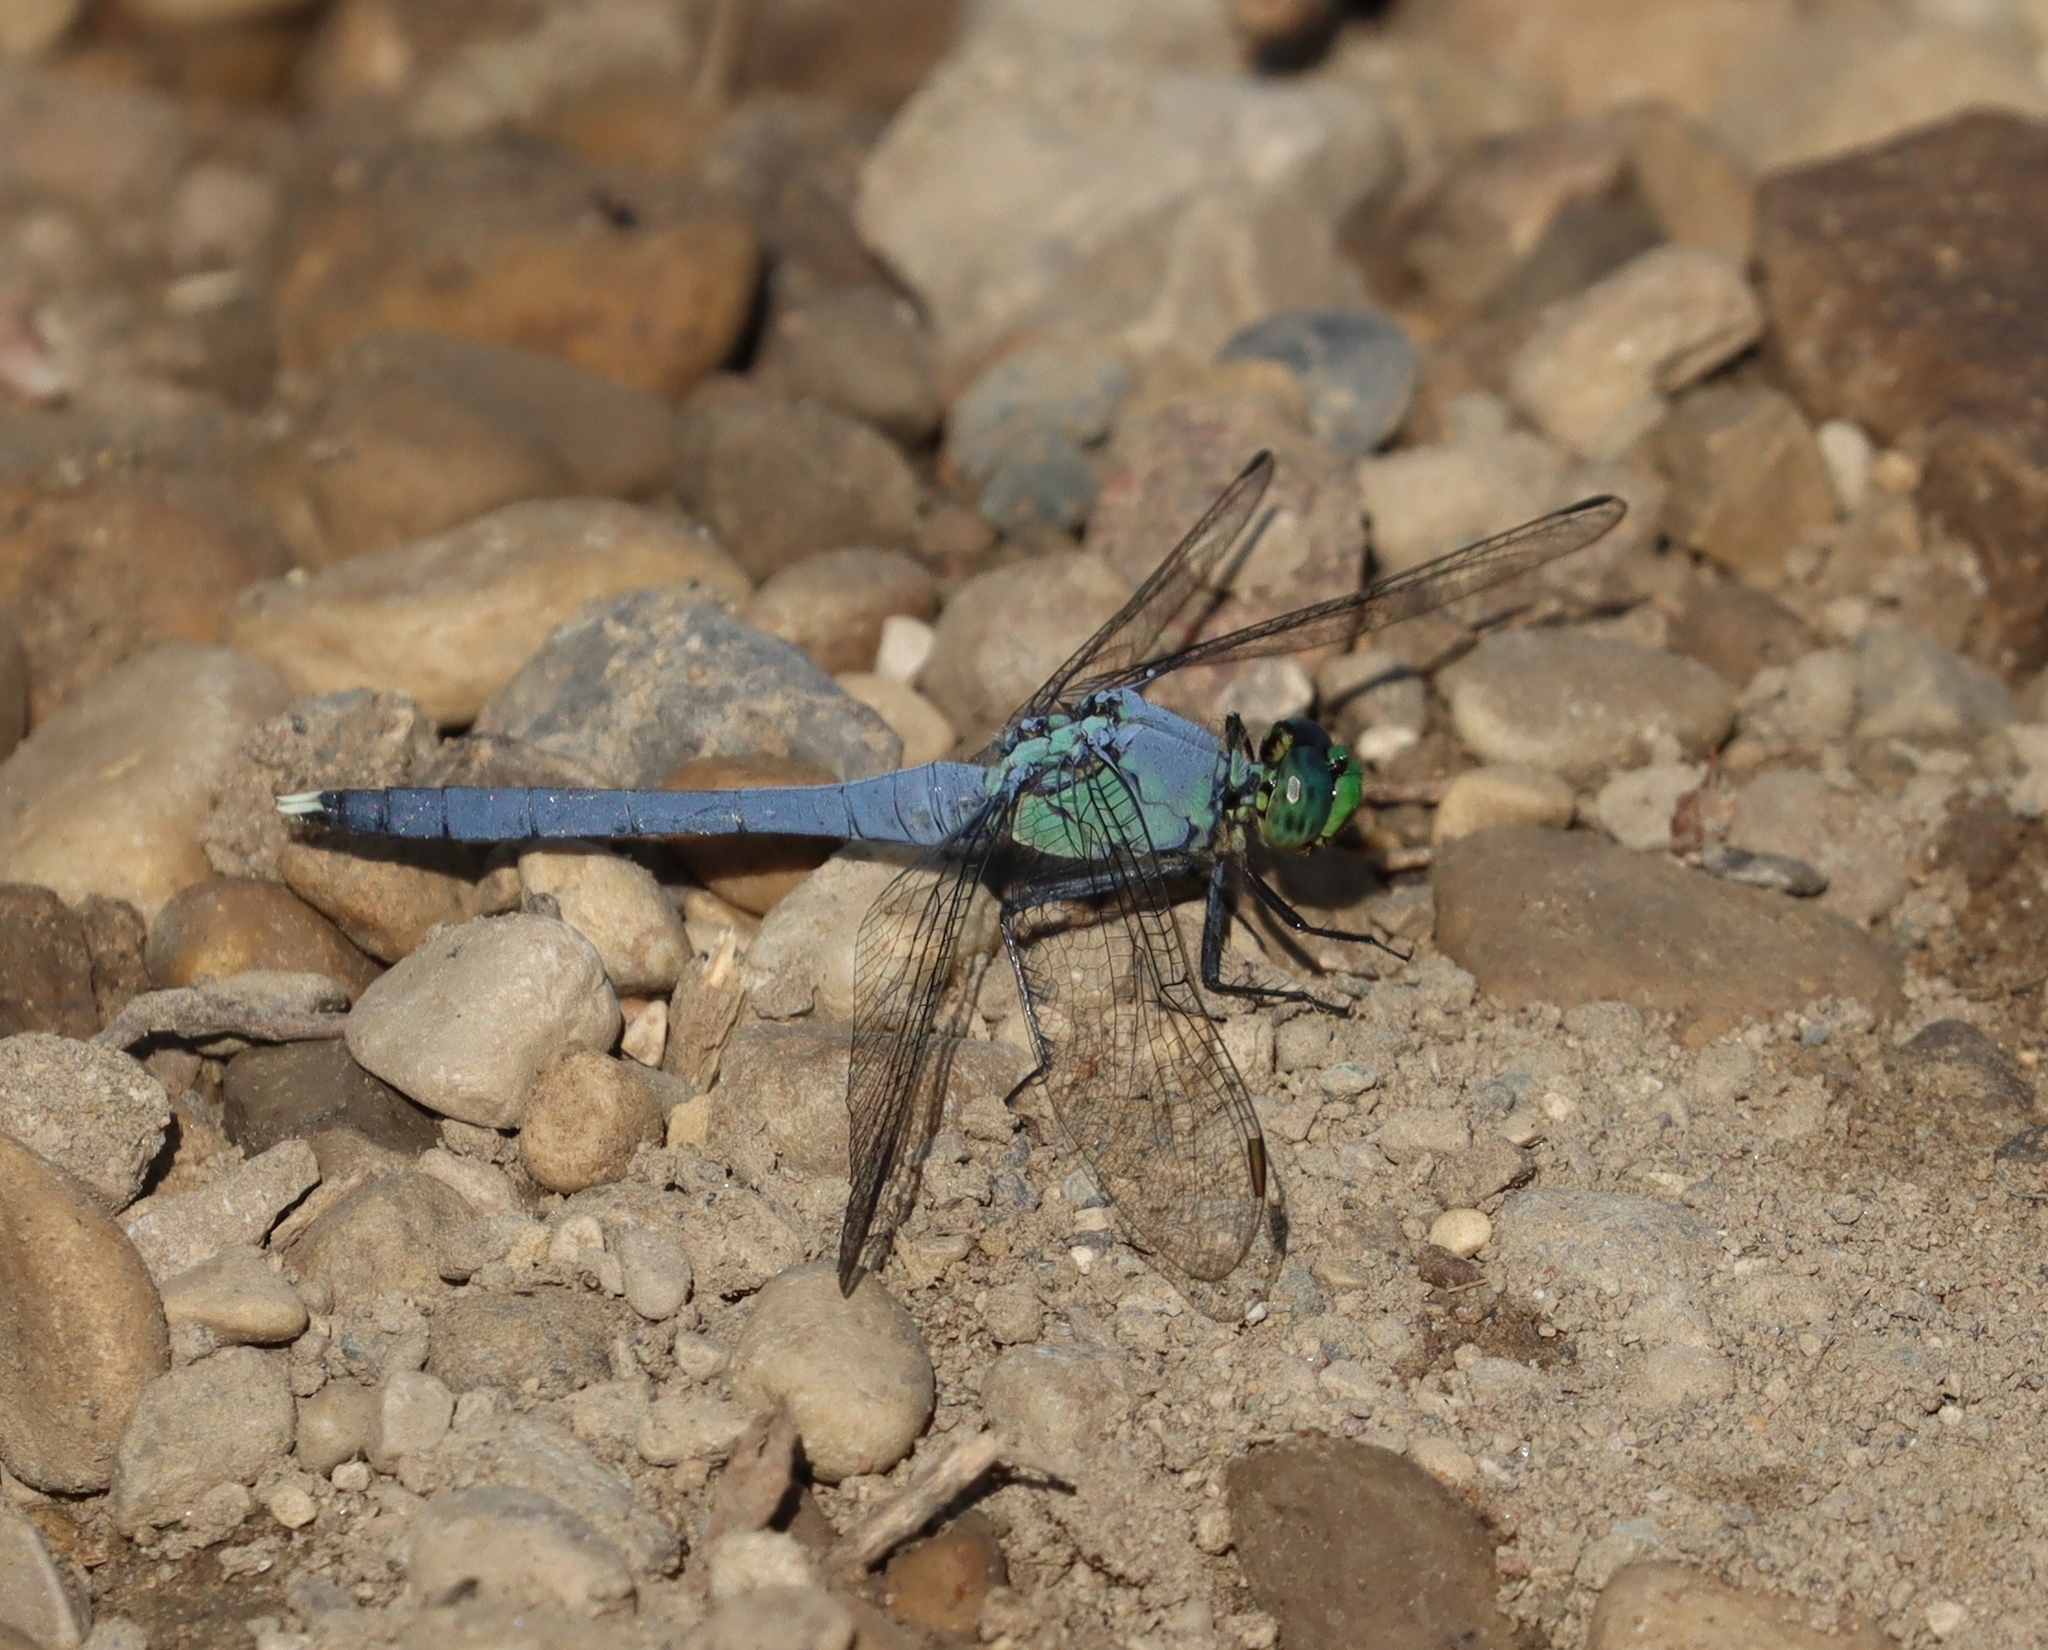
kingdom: Animalia
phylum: Arthropoda
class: Insecta
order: Odonata
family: Libellulidae
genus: Erythemis
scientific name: Erythemis simplicicollis
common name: Eastern pondhawk
